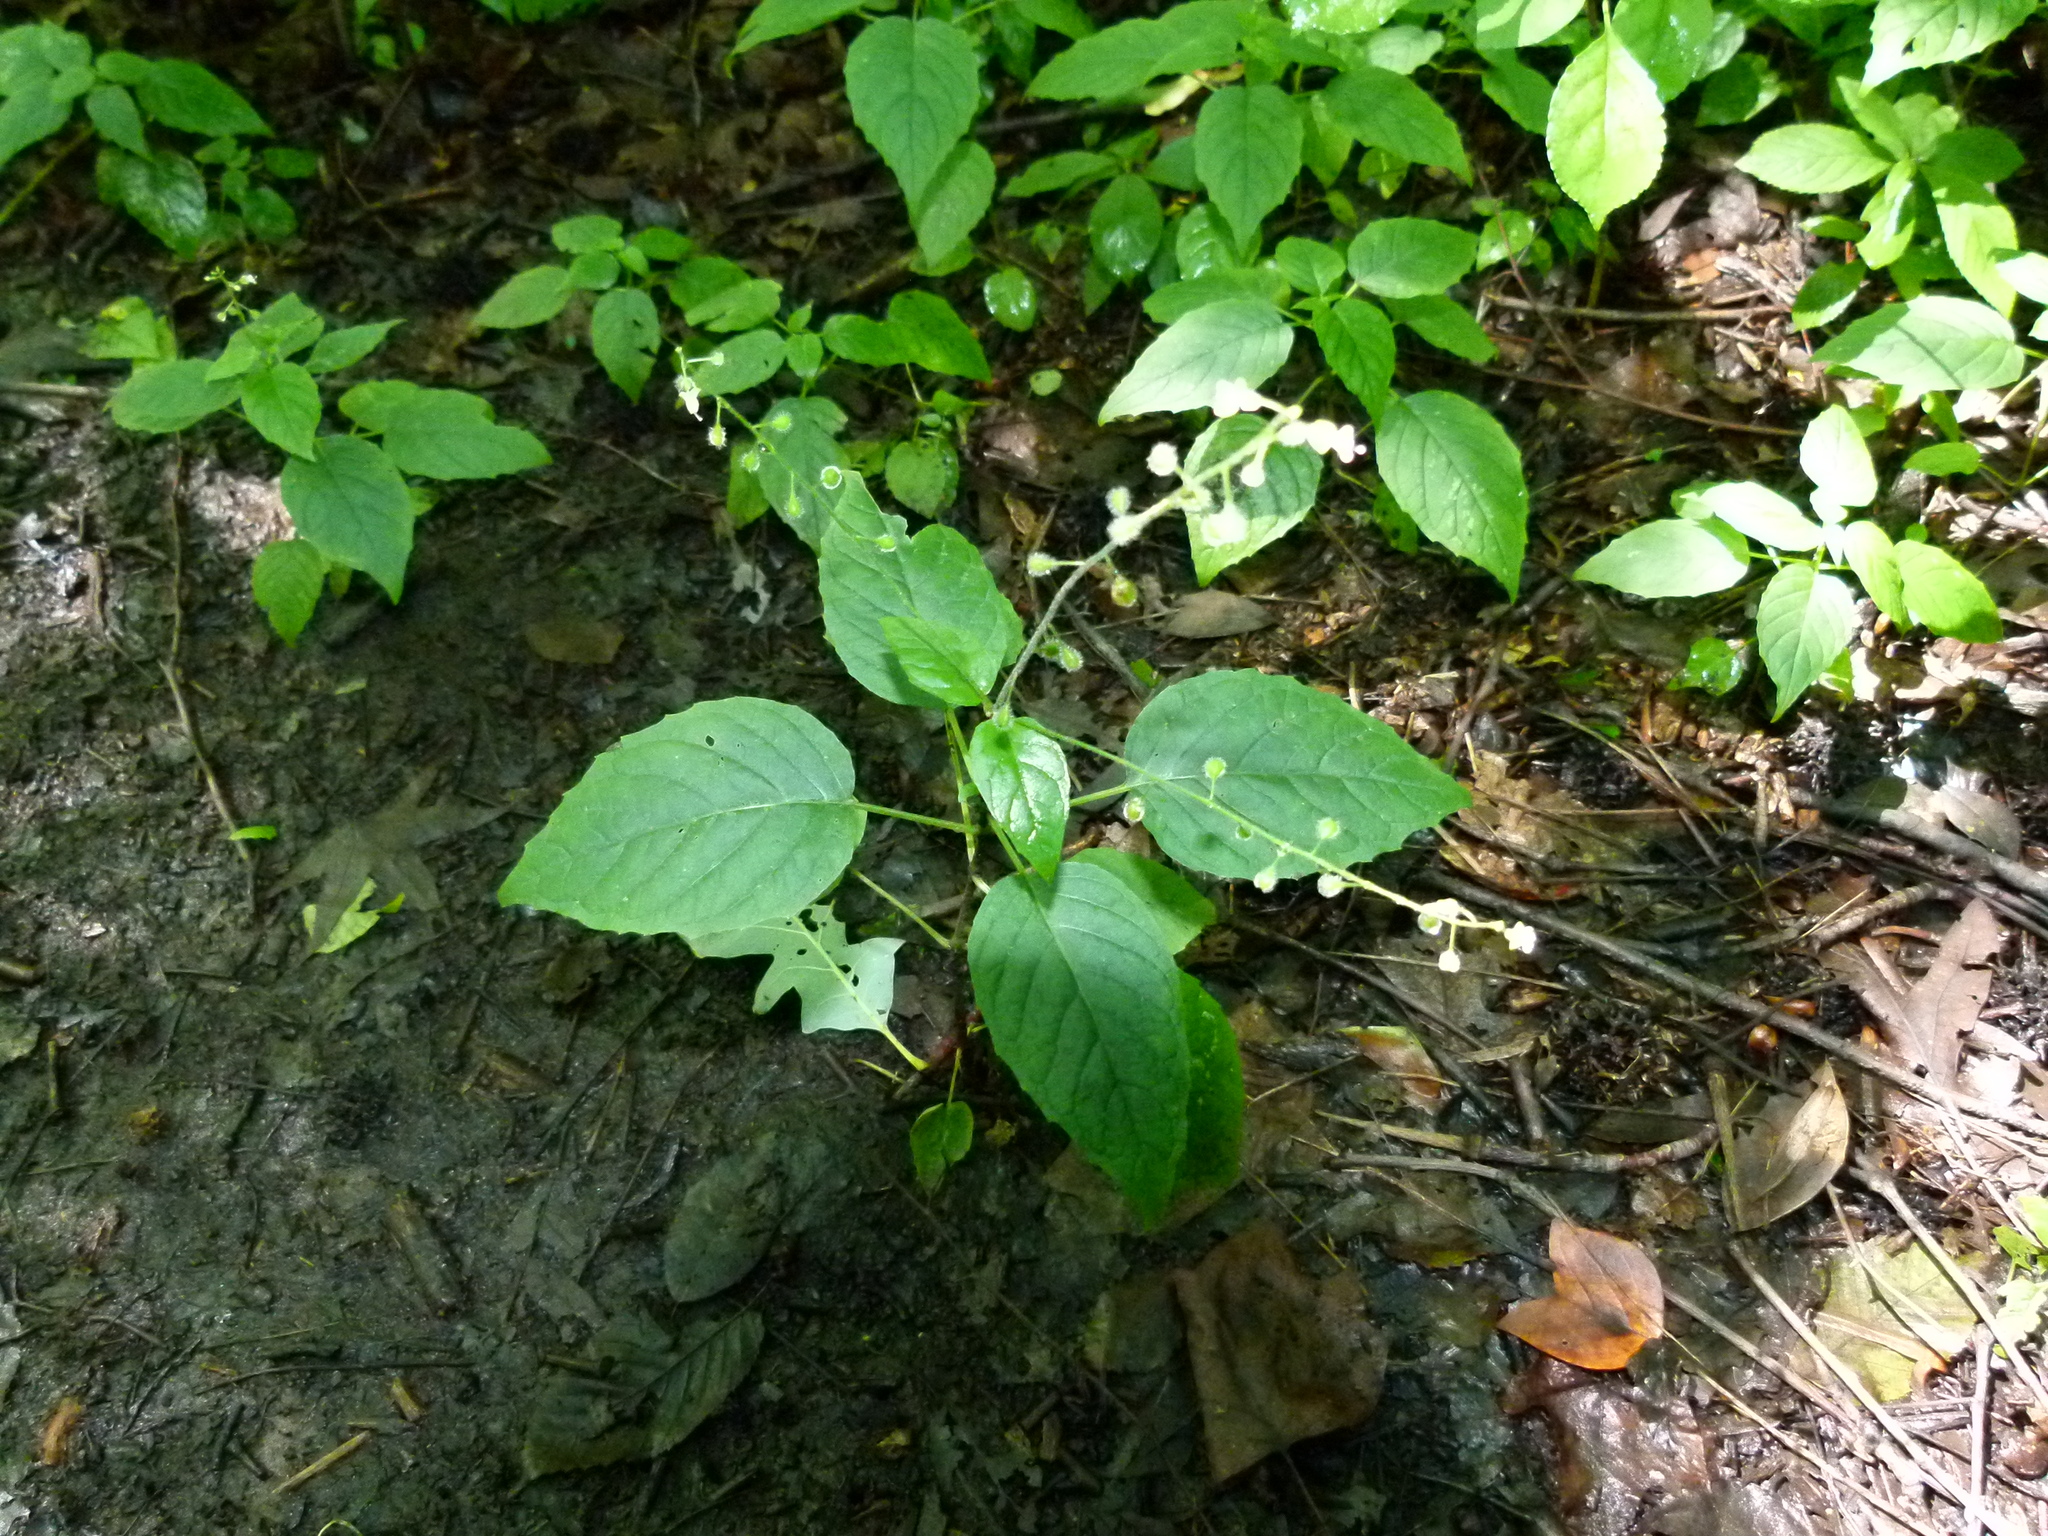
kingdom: Plantae
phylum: Tracheophyta
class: Magnoliopsida
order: Myrtales
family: Onagraceae
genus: Circaea
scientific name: Circaea canadensis
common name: Broad-leaved enchanter's nightshade
